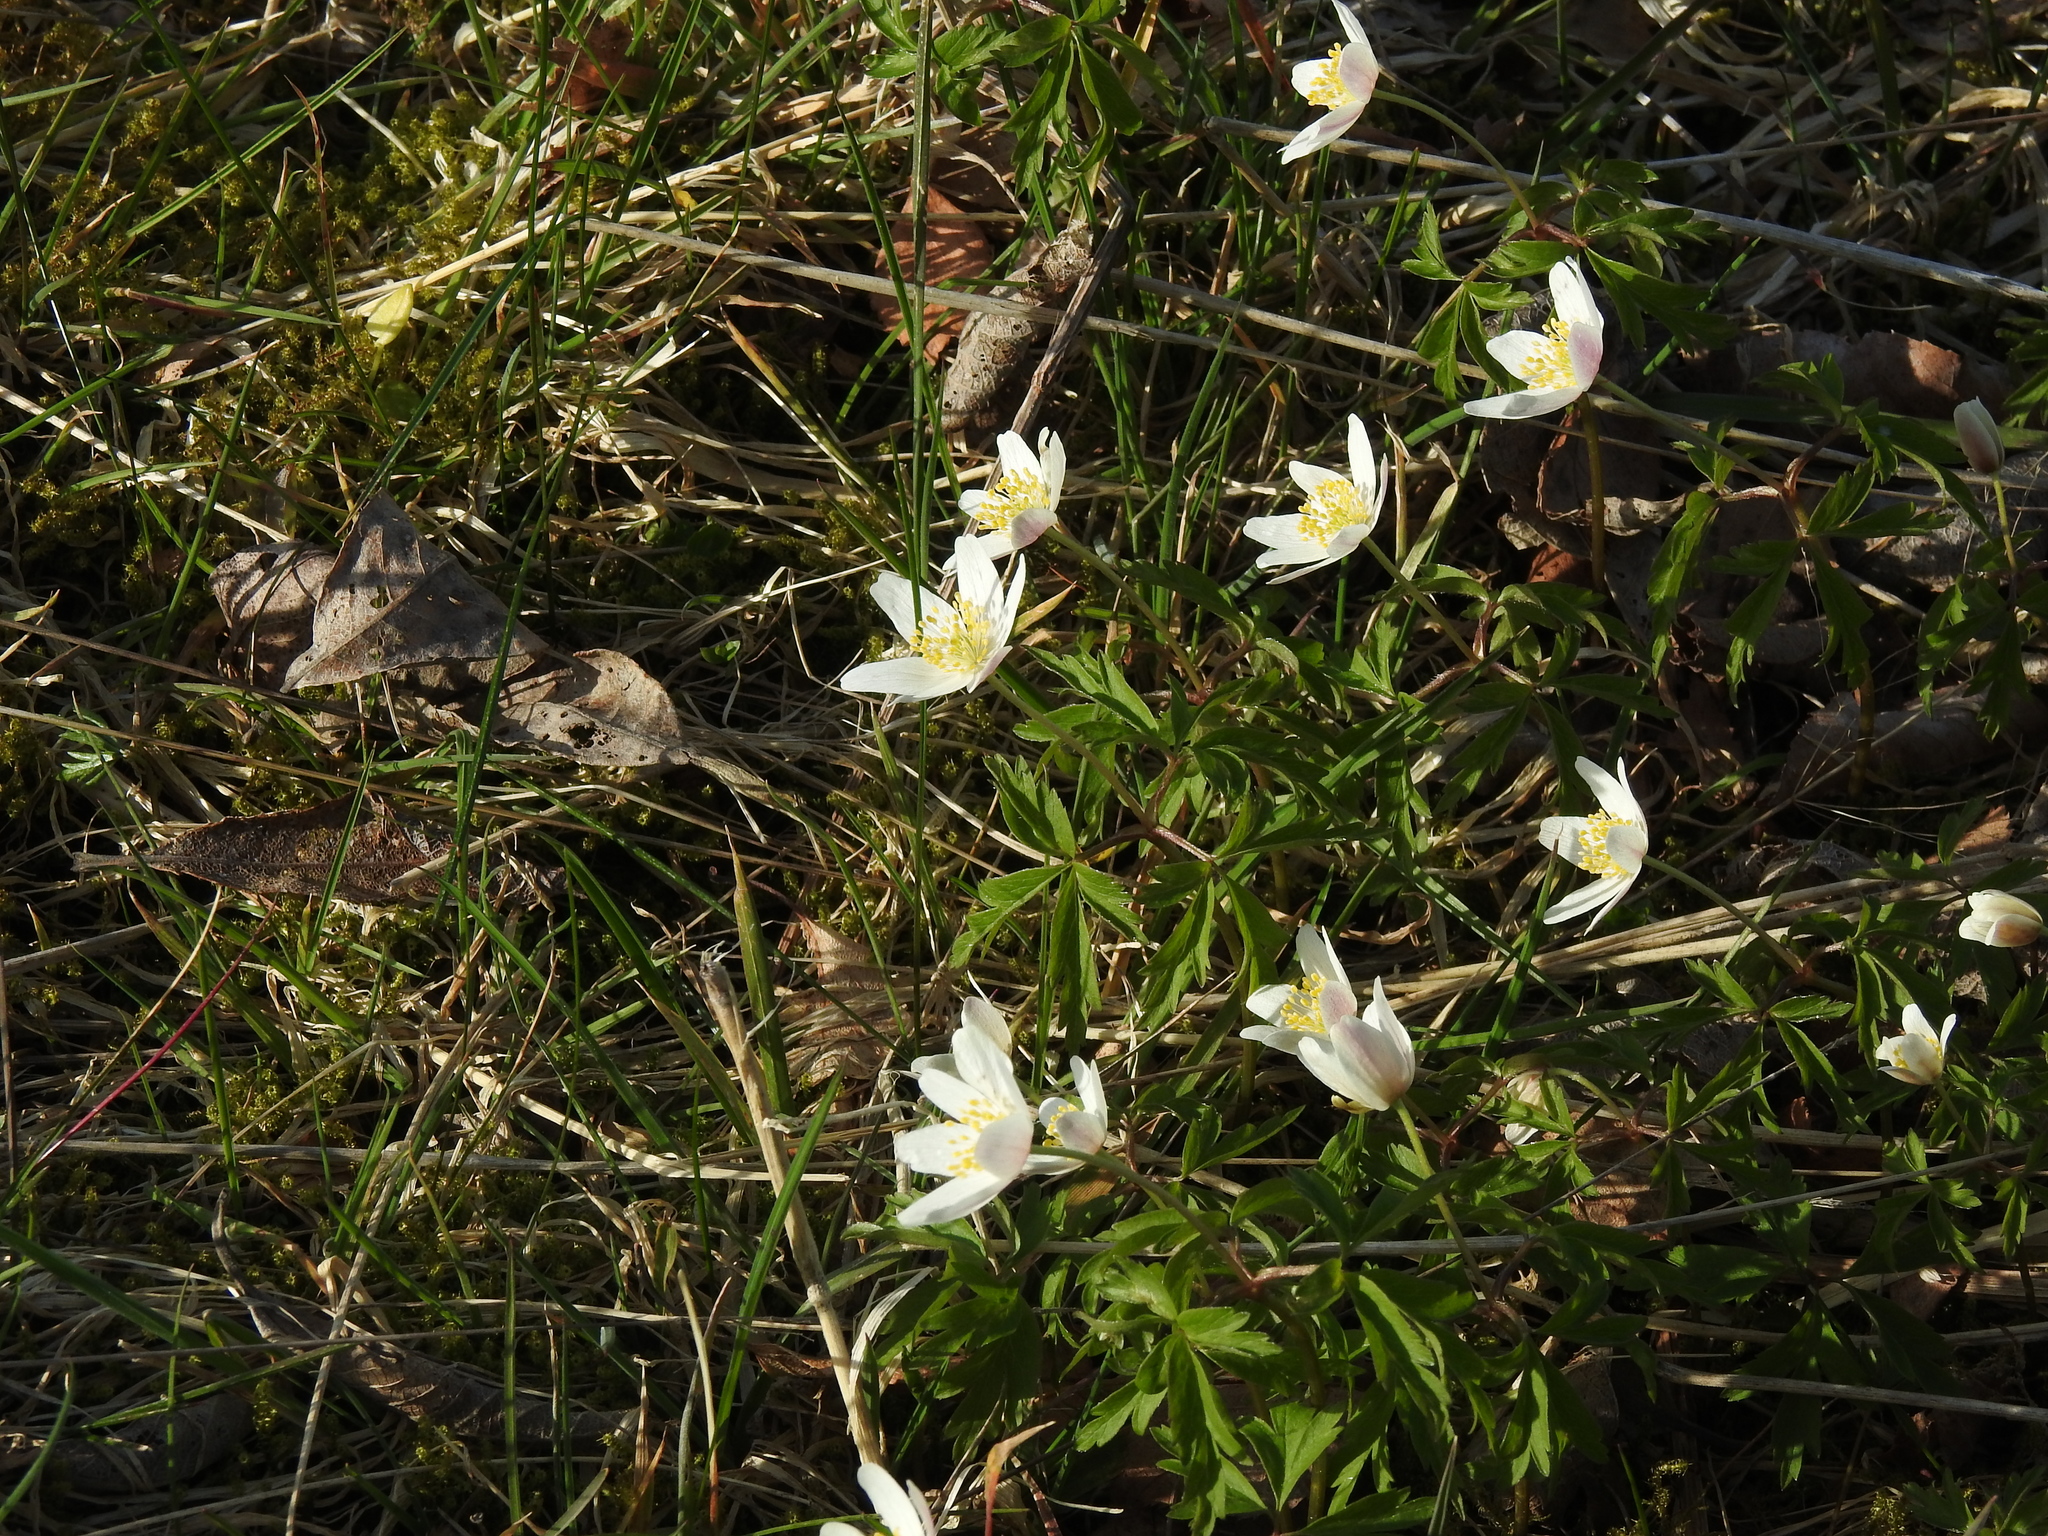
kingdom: Plantae
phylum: Tracheophyta
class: Magnoliopsida
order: Ranunculales
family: Ranunculaceae
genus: Anemone
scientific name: Anemone nemorosa
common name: Wood anemone
